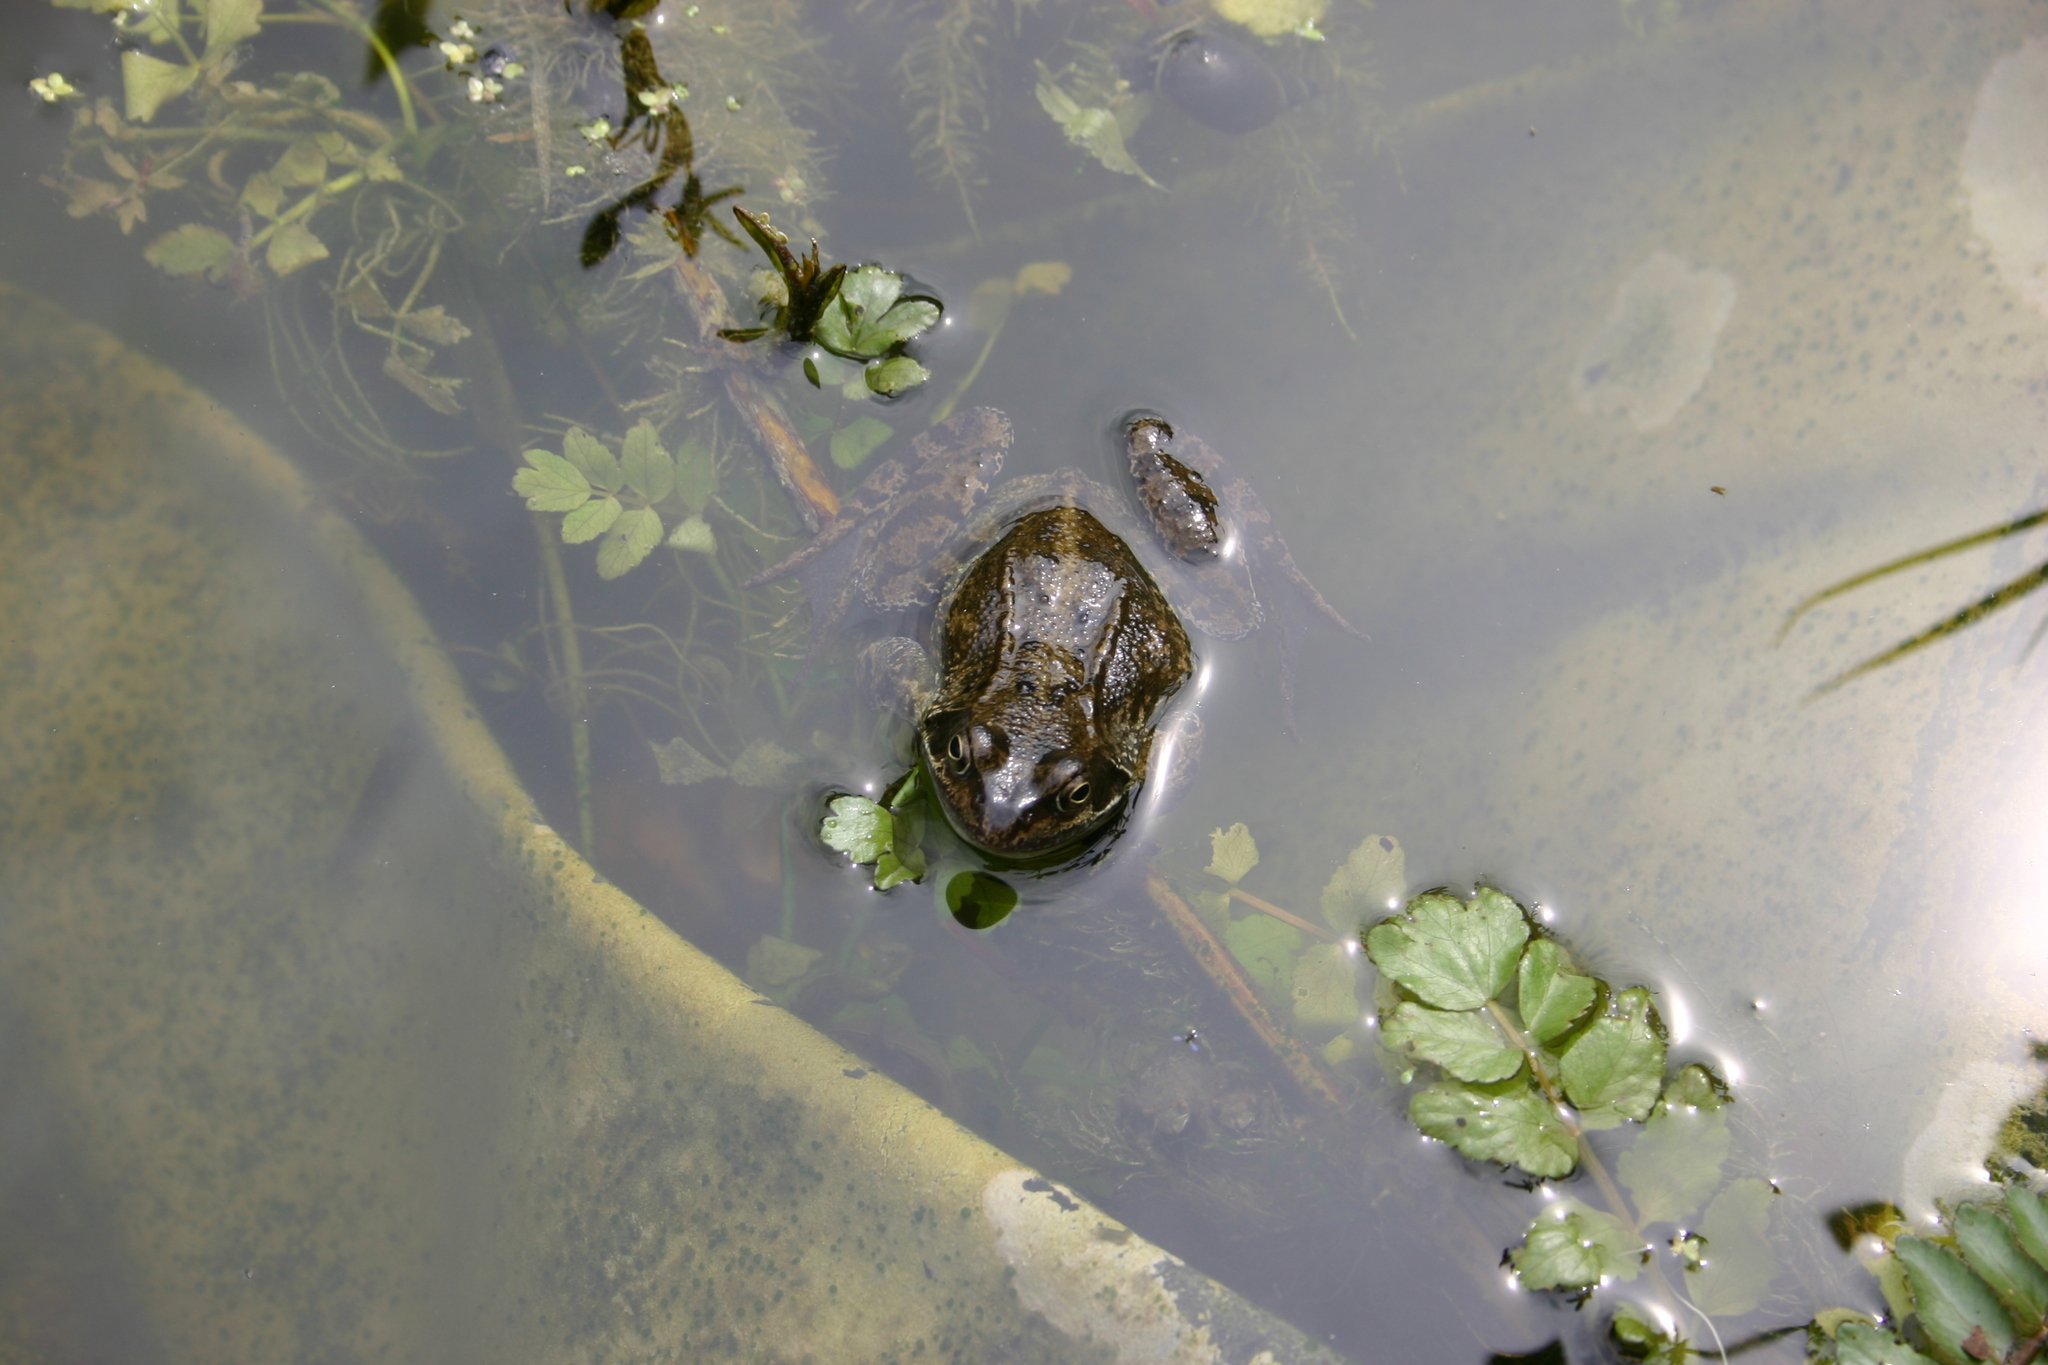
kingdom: Animalia
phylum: Chordata
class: Amphibia
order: Anura
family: Ranidae
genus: Rana
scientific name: Rana temporaria
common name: Common frog
